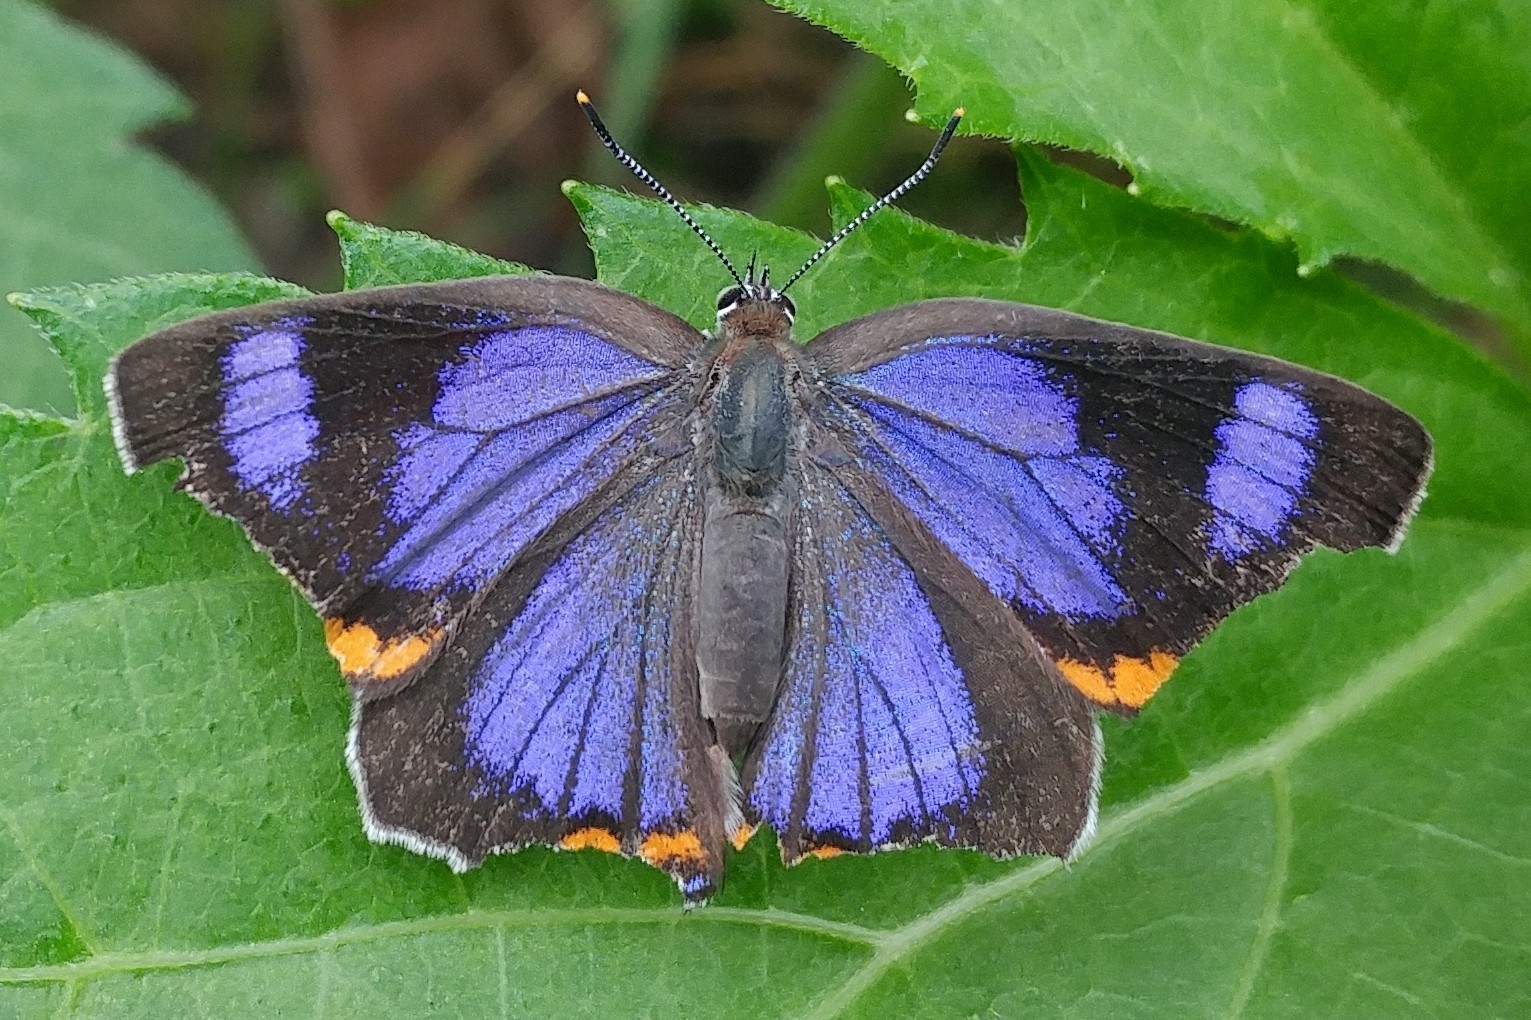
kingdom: Animalia
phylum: Arthropoda
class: Insecta
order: Lepidoptera
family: Lycaenidae
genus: Hypaurotis
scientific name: Hypaurotis crysalus
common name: Colorado hairstreak
